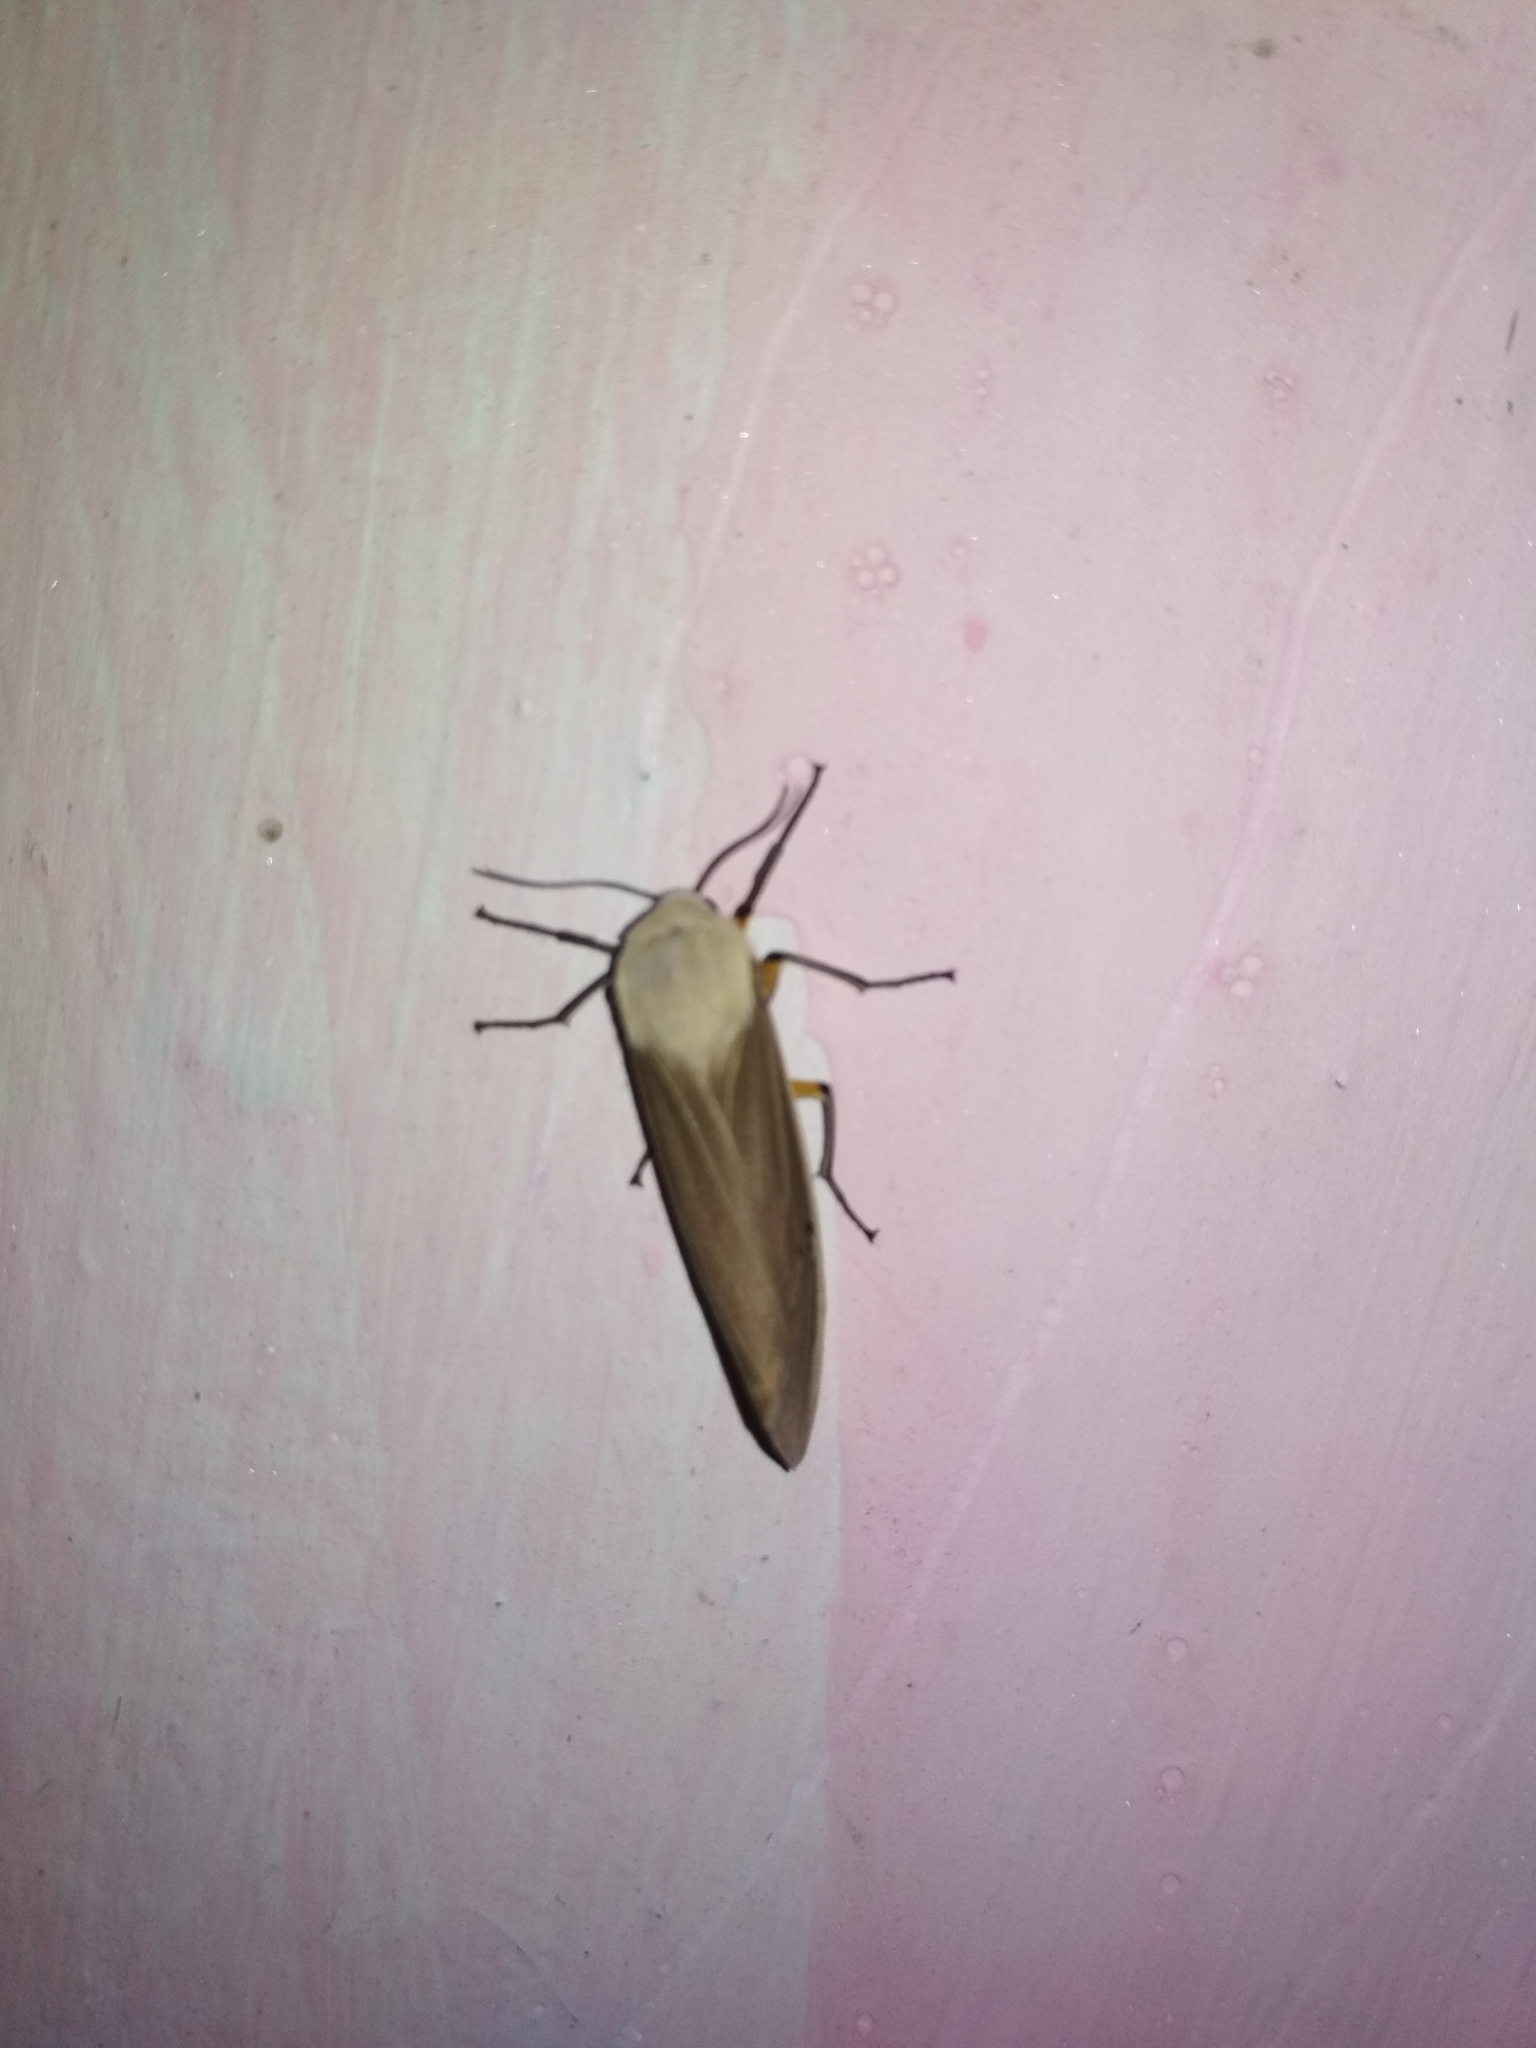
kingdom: Animalia
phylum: Arthropoda
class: Insecta
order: Lepidoptera
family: Erebidae
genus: Creatonotos
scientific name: Creatonotos transiens
